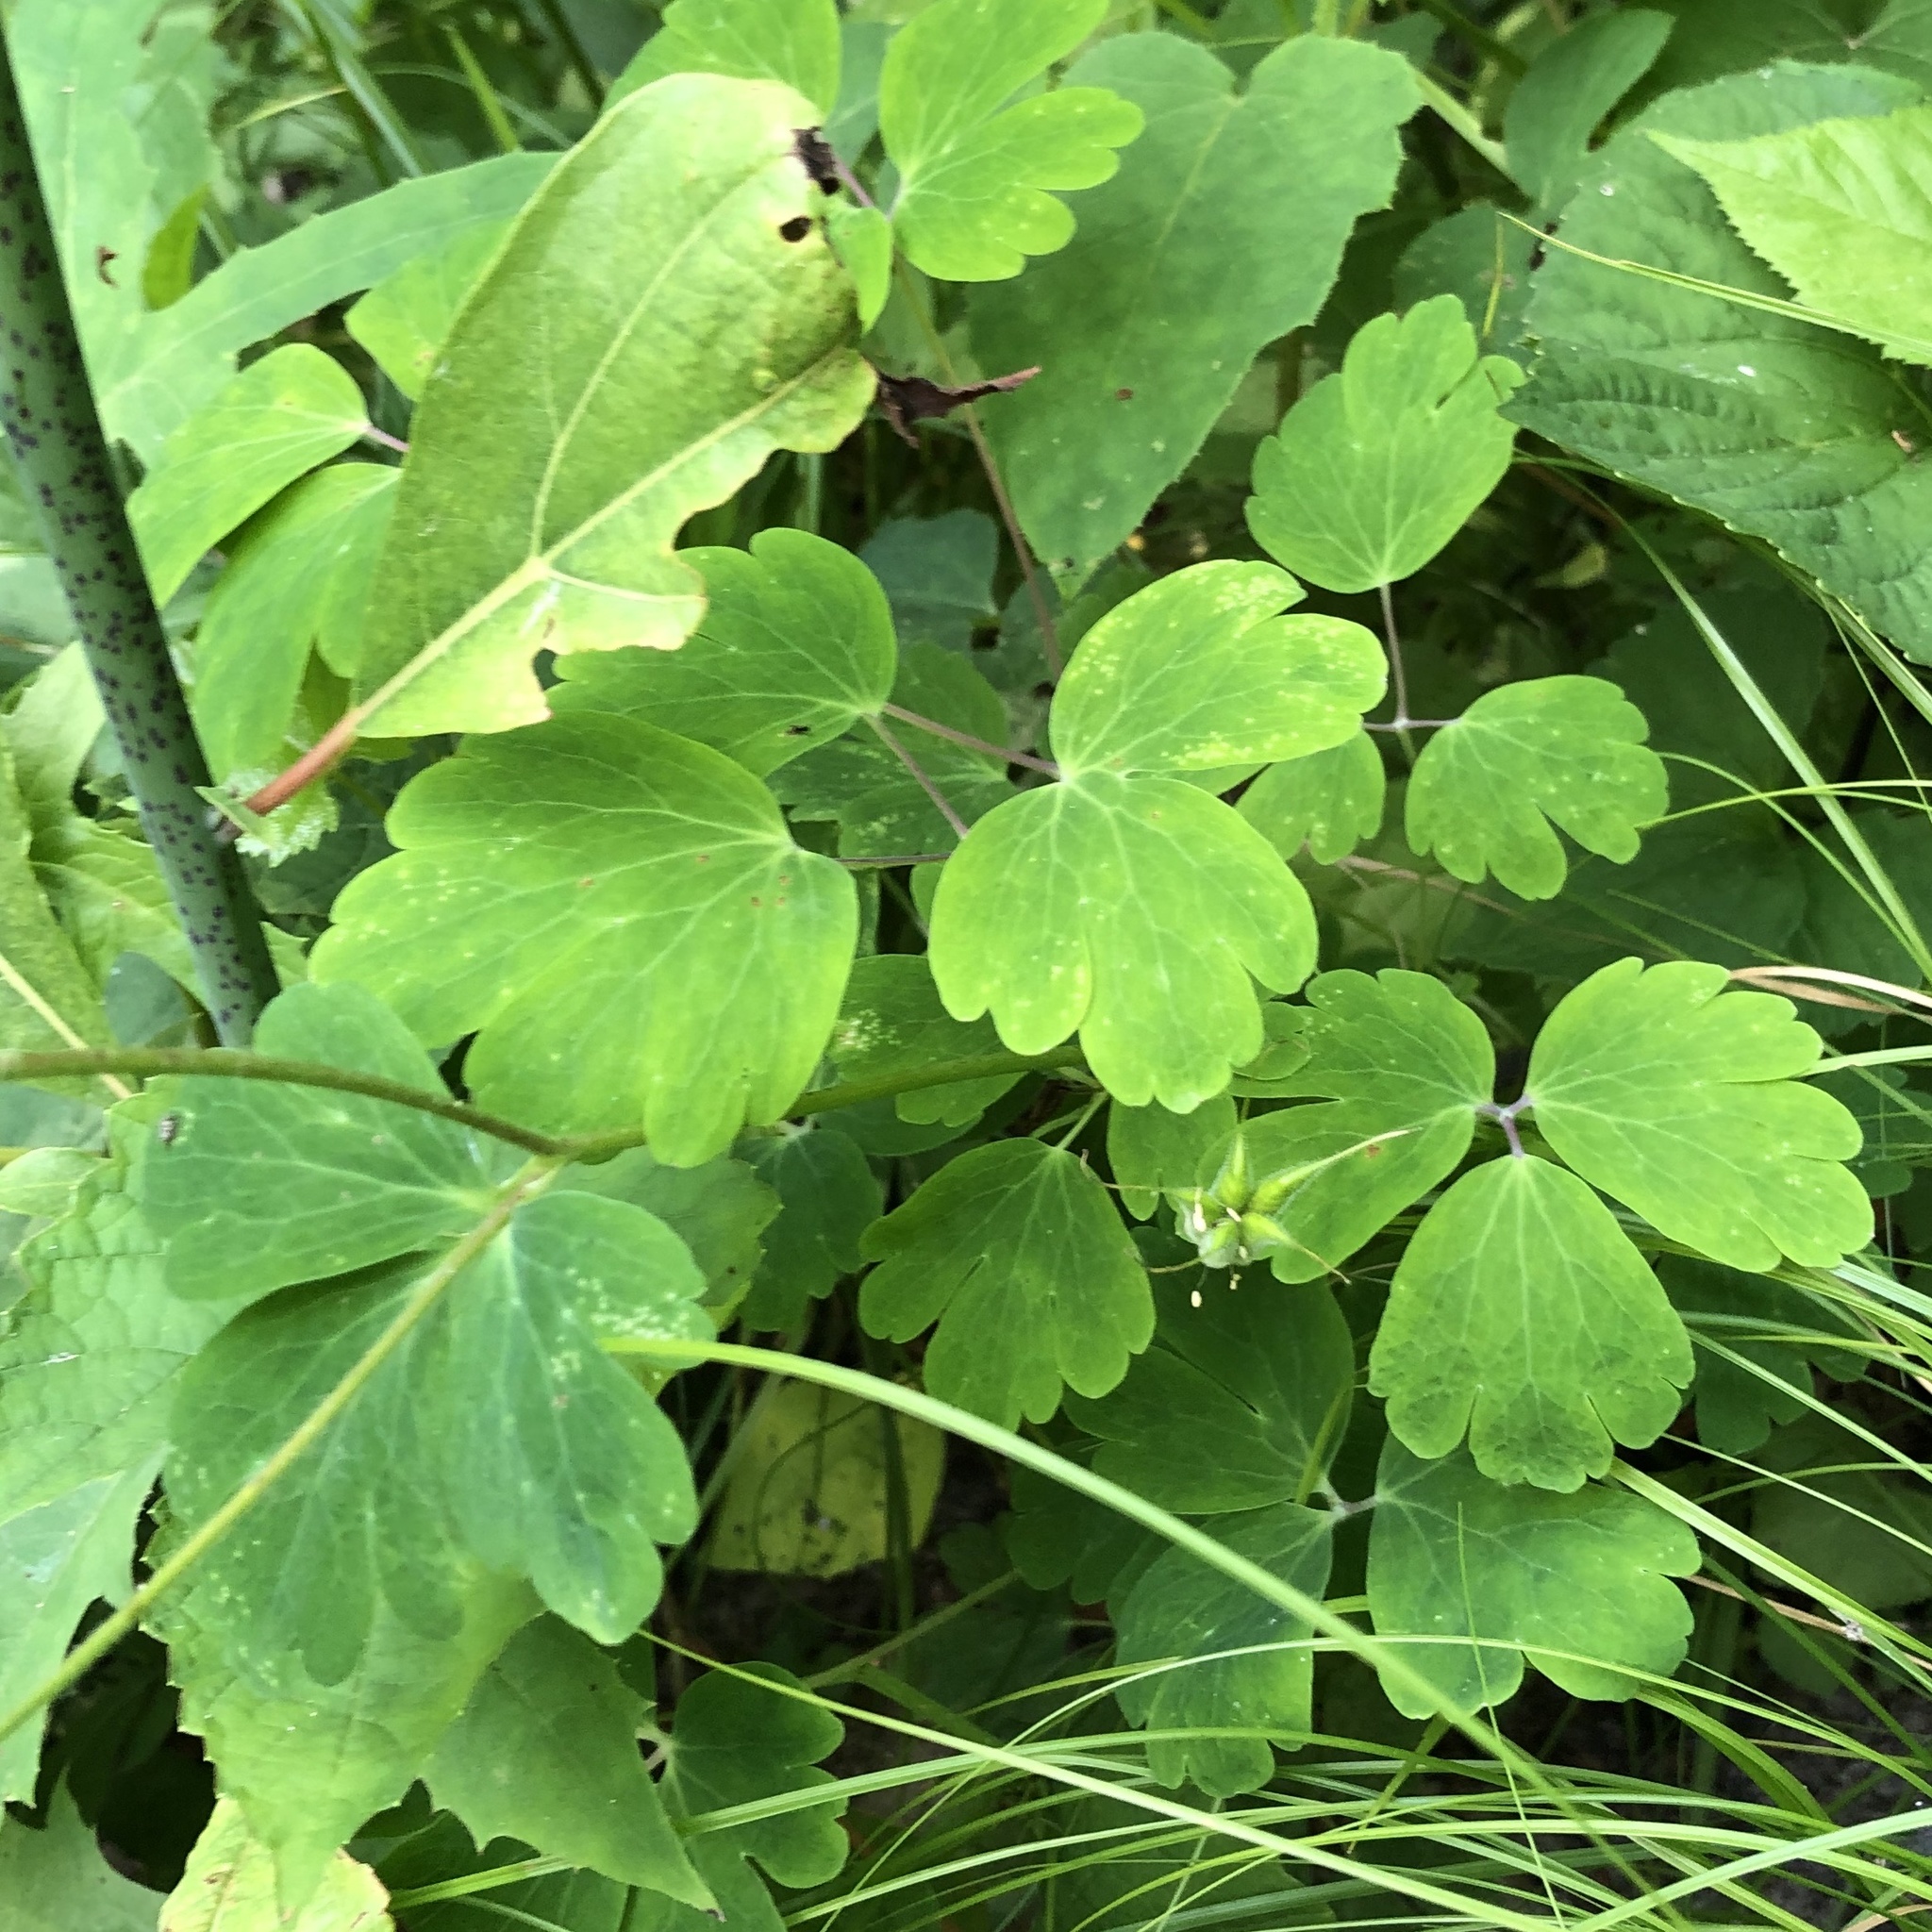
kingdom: Plantae
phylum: Tracheophyta
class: Magnoliopsida
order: Ranunculales
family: Ranunculaceae
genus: Aquilegia
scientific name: Aquilegia canadensis
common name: American columbine
